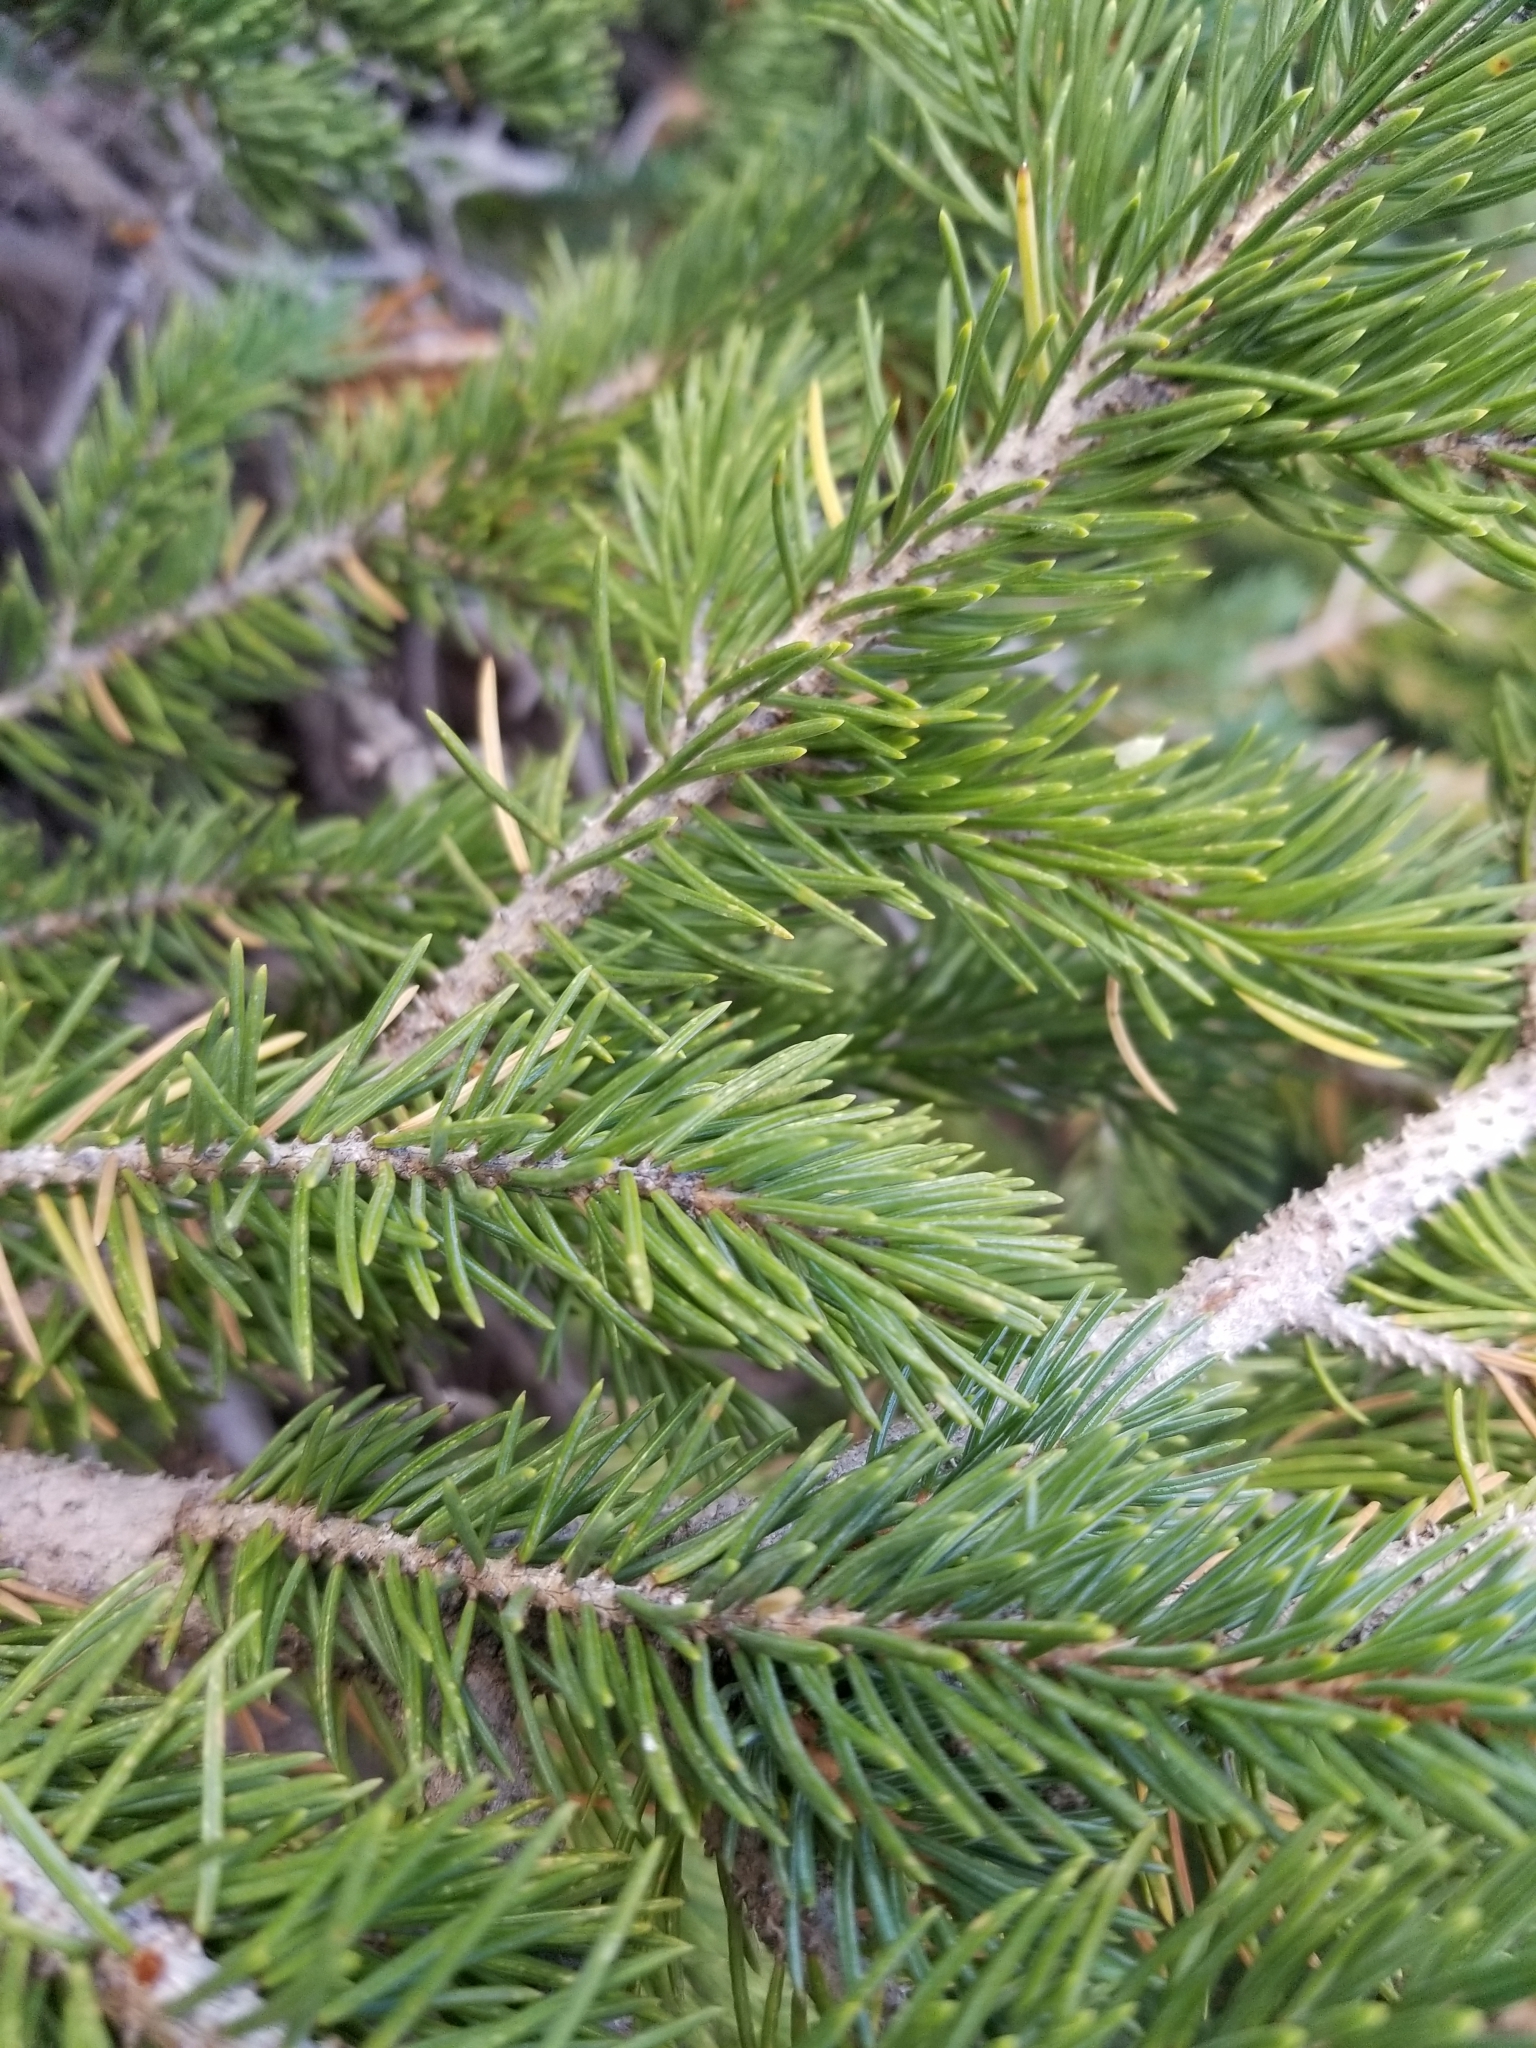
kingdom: Plantae
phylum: Tracheophyta
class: Pinopsida
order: Pinales
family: Pinaceae
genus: Abies
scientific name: Abies lasiocarpa
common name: Subalpine fir
